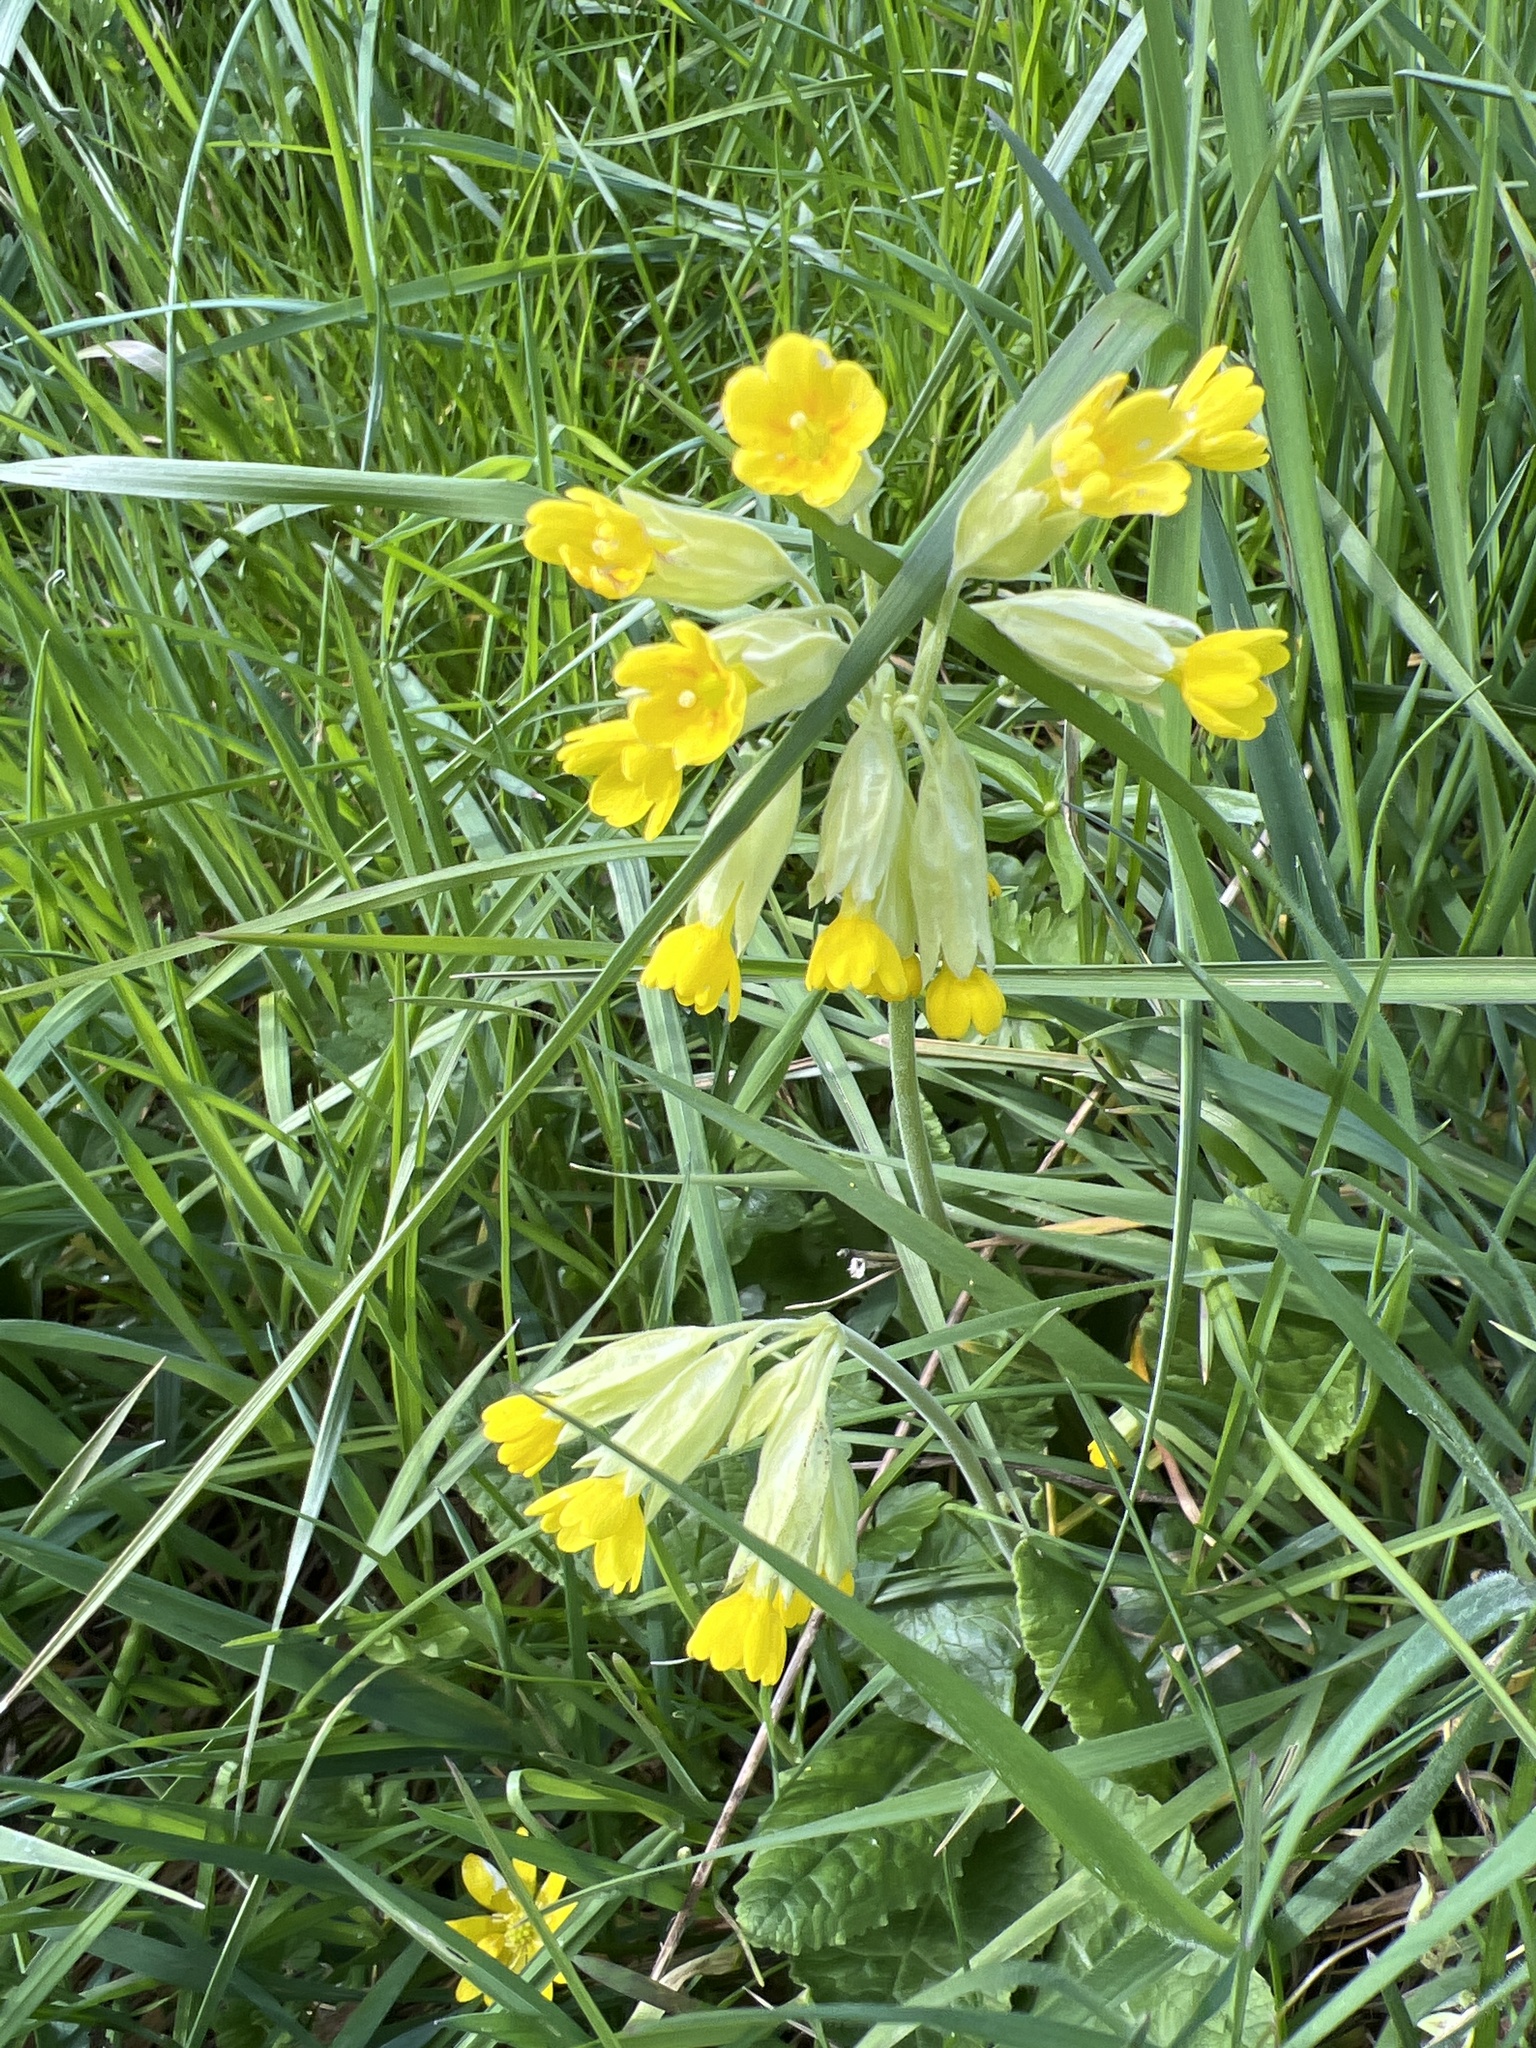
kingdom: Plantae
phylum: Tracheophyta
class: Magnoliopsida
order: Ericales
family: Primulaceae
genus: Primula
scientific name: Primula veris
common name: Cowslip
